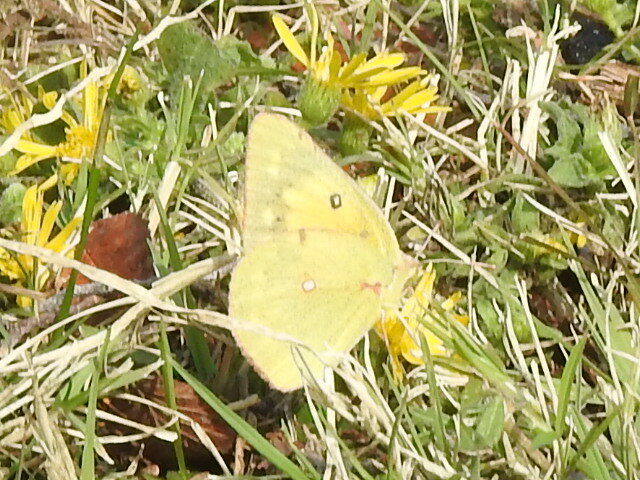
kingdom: Animalia
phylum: Arthropoda
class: Insecta
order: Lepidoptera
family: Pieridae
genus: Colias
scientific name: Colias eurytheme
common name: Alfalfa butterfly
